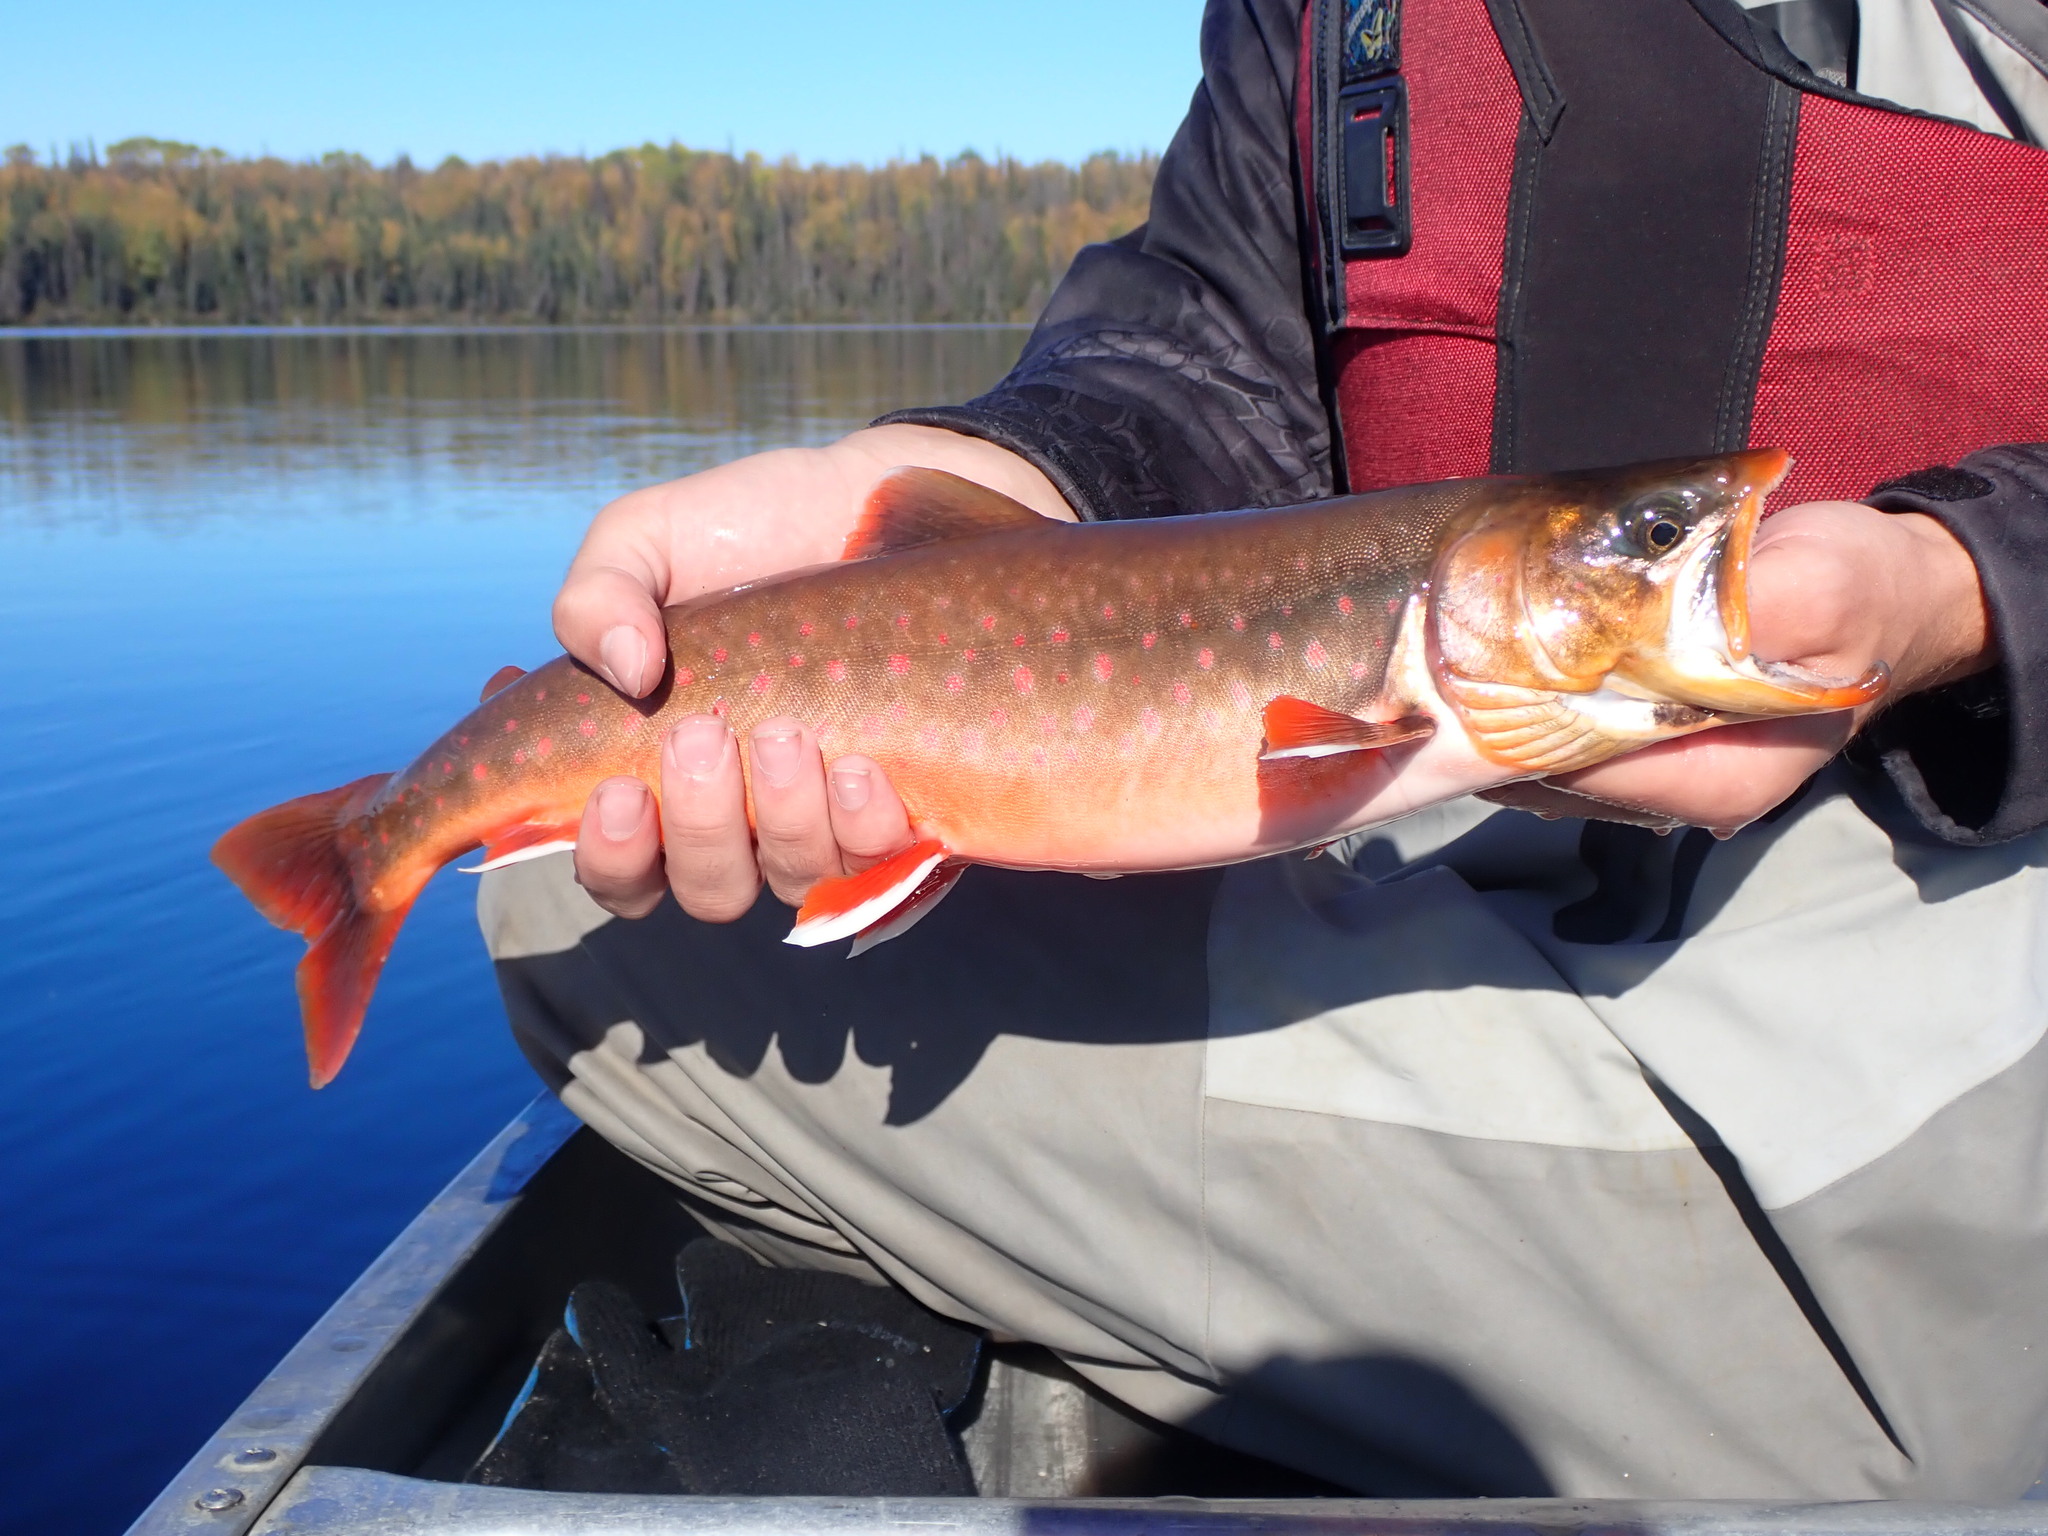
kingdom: Animalia
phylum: Chordata
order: Salmoniformes
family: Salmonidae
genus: Salvelinus
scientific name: Salvelinus alpinus
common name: Charr
